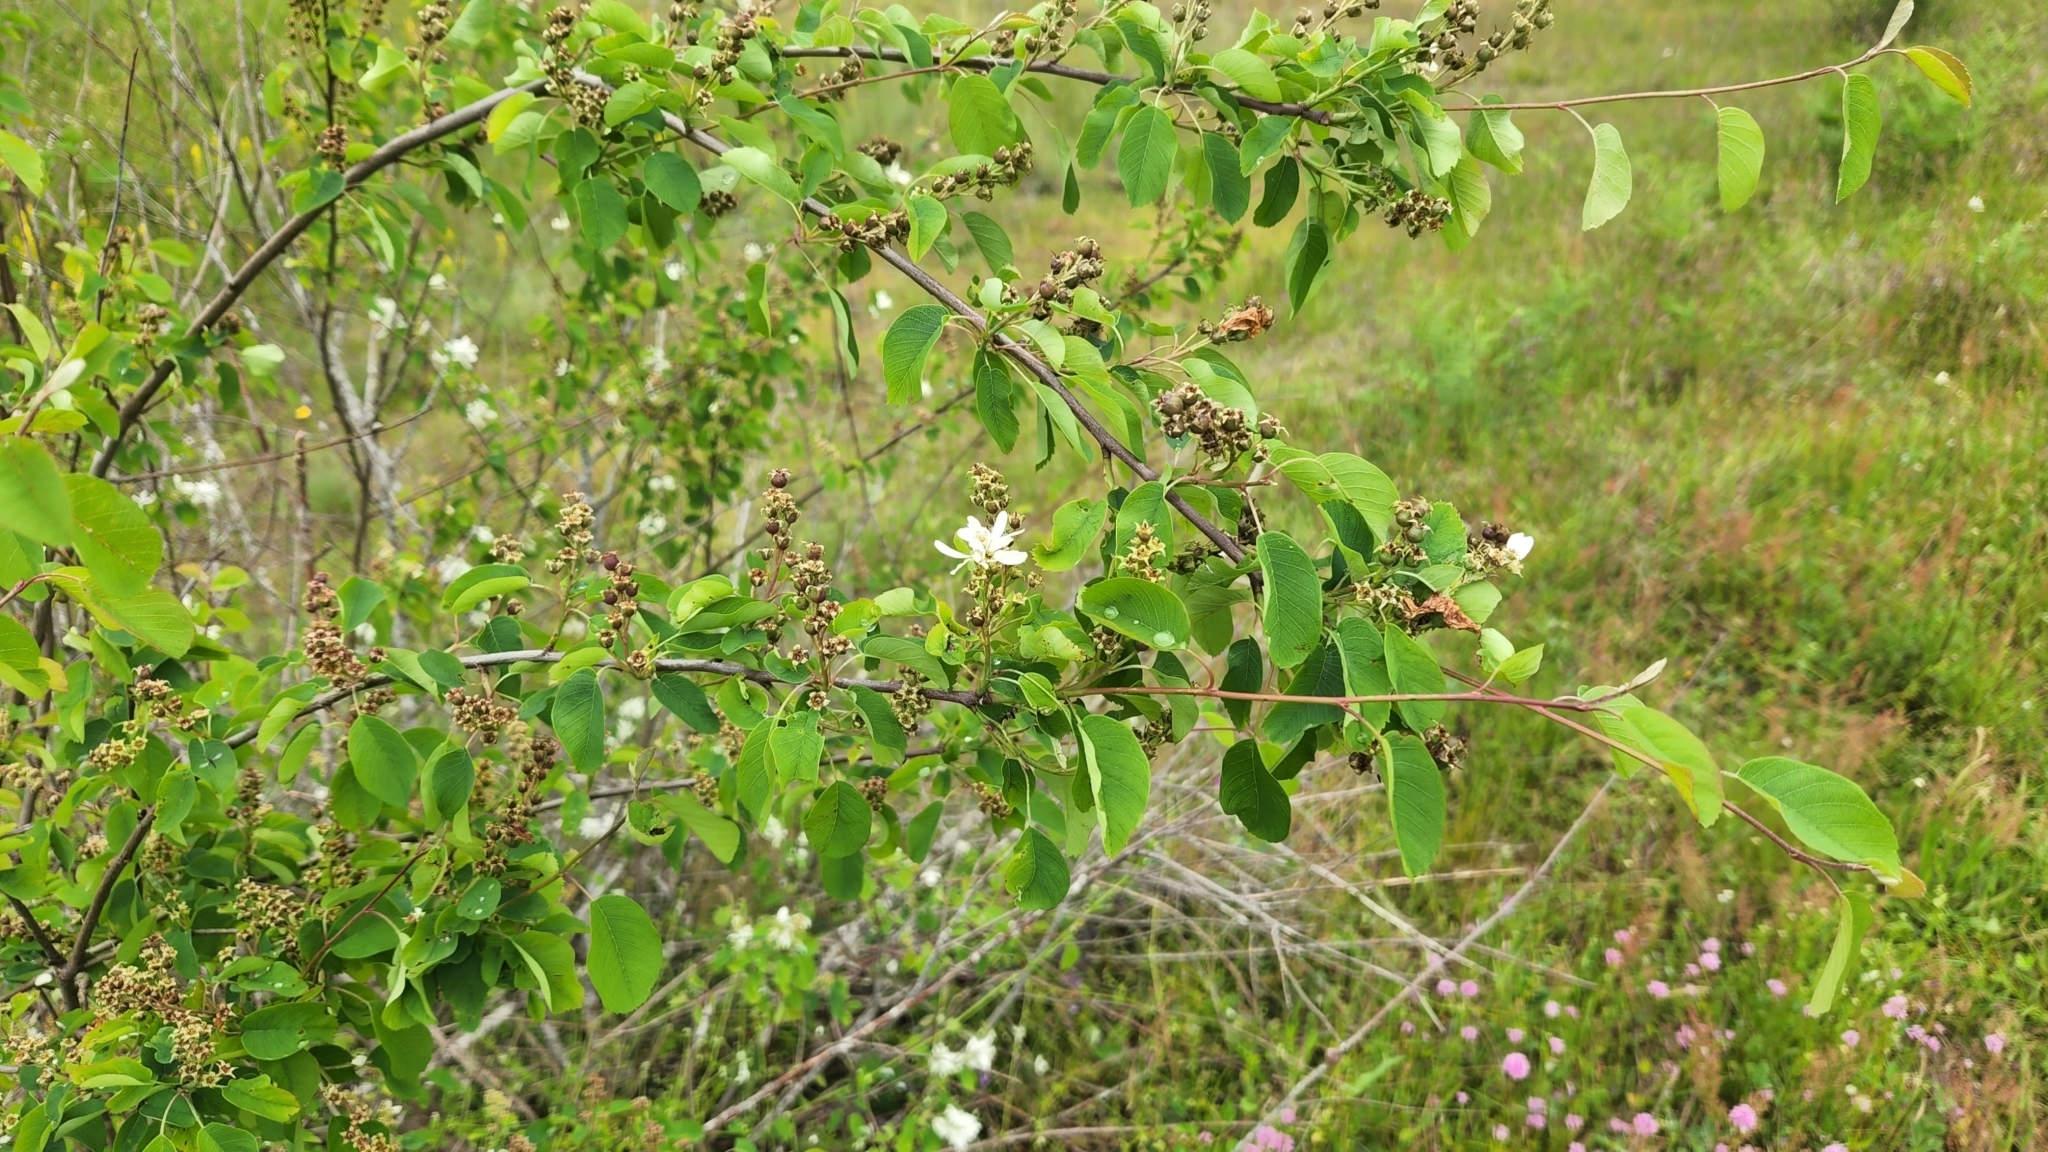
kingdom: Plantae
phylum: Tracheophyta
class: Magnoliopsida
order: Rosales
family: Rosaceae
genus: Amelanchier
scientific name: Amelanchier alnifolia
